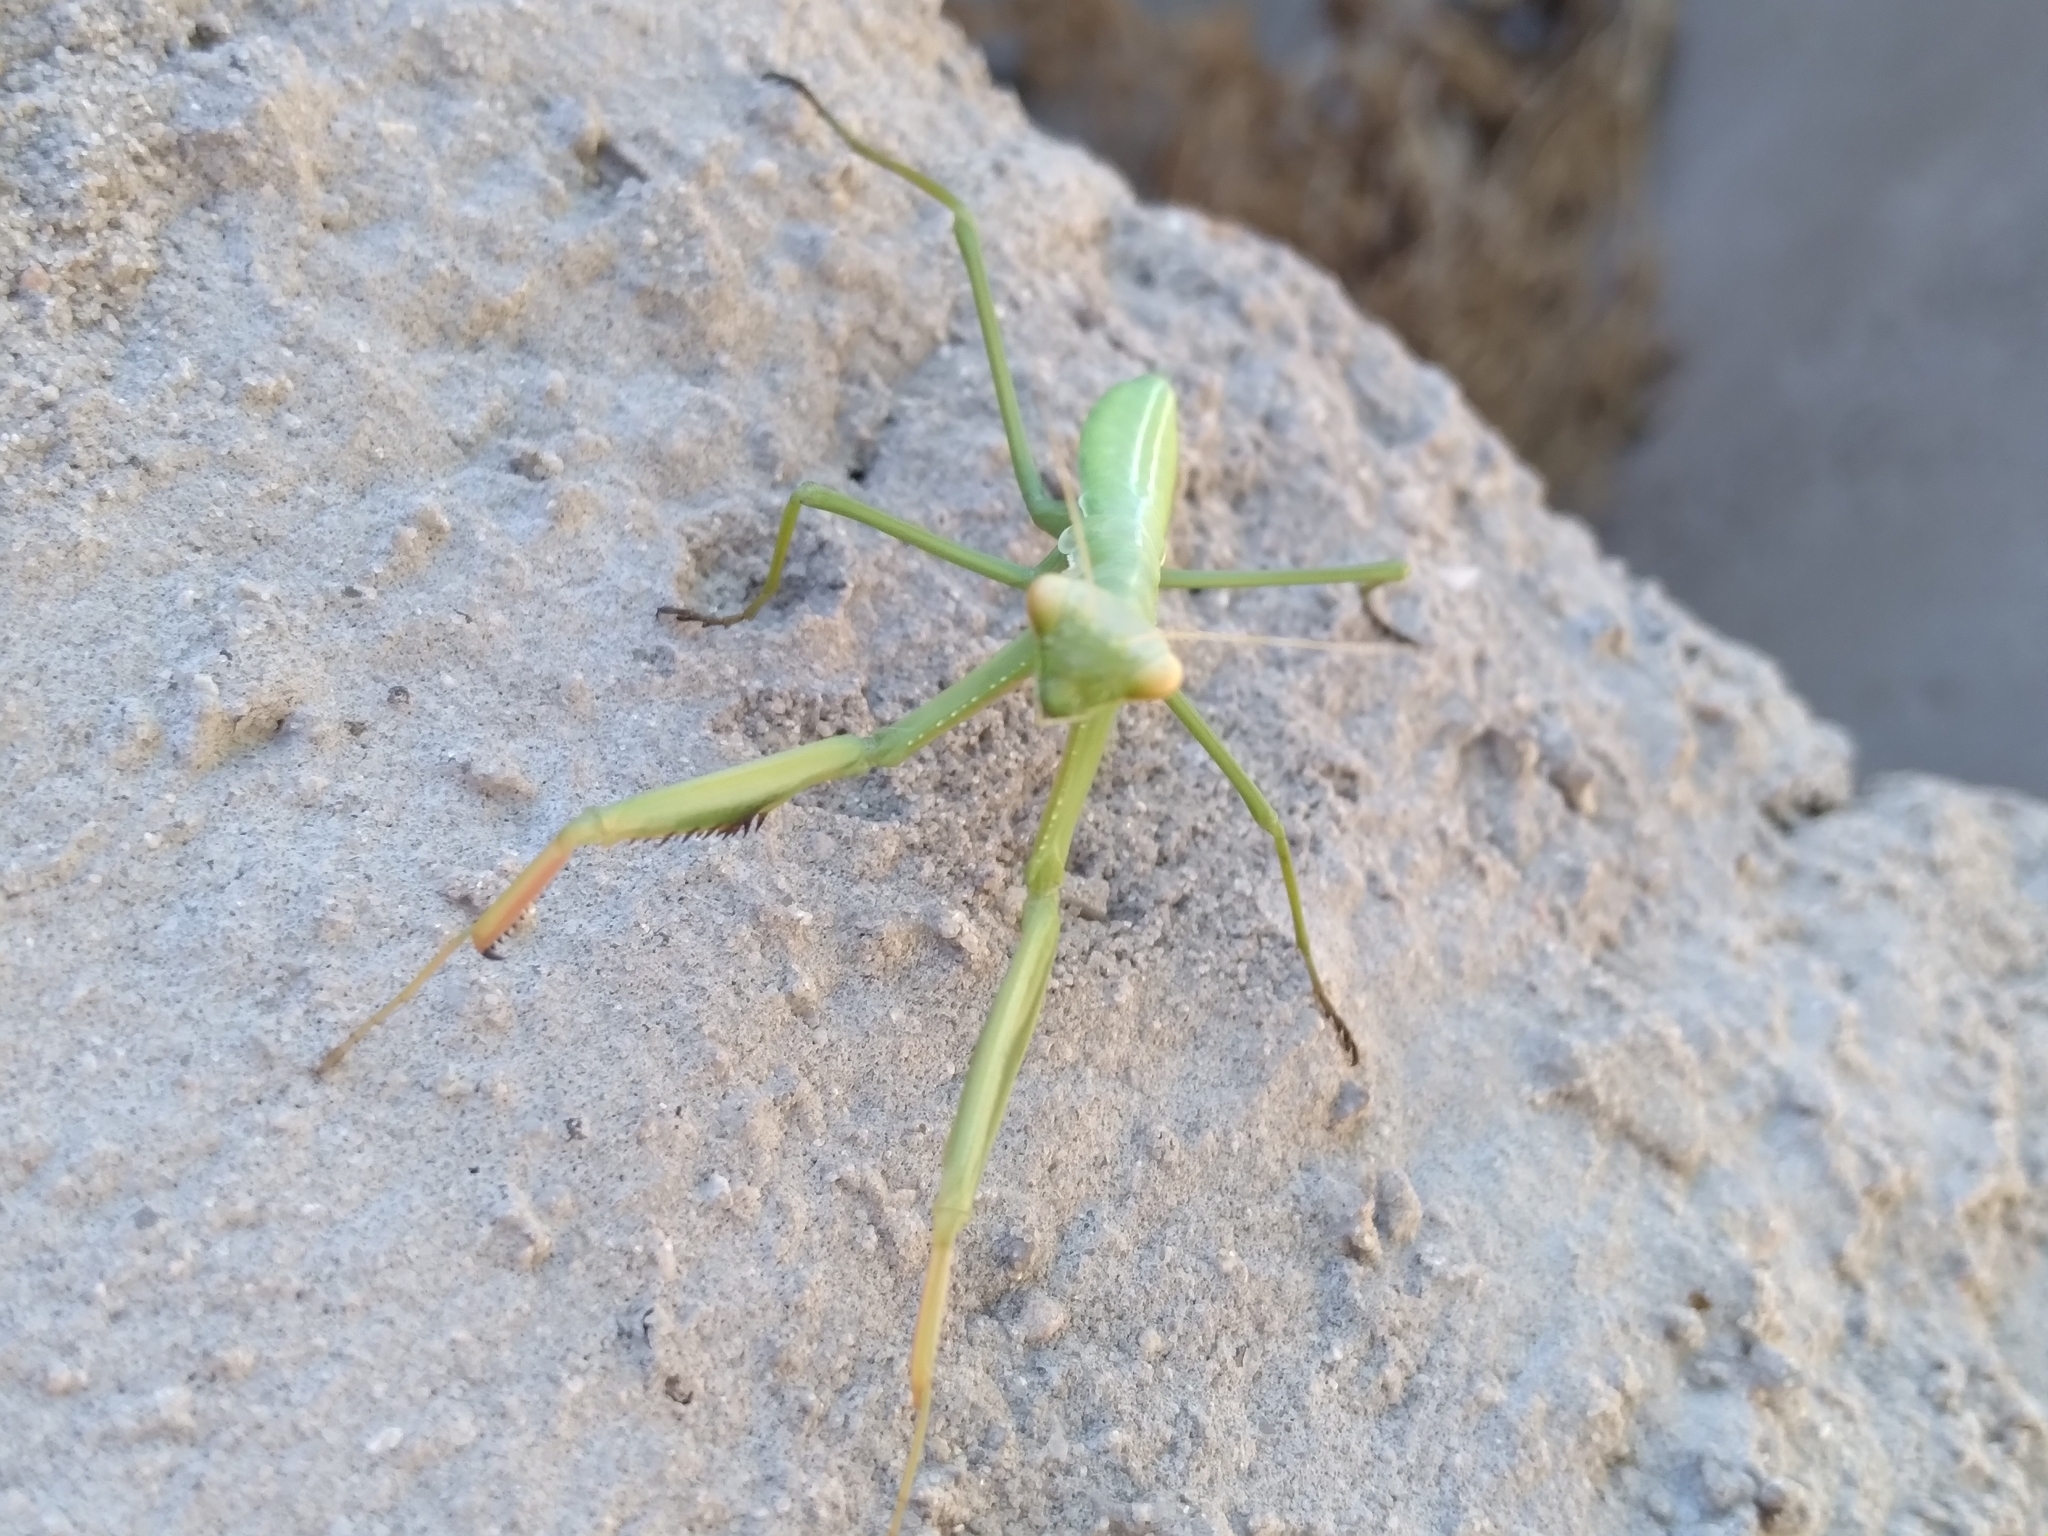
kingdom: Animalia
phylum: Arthropoda
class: Insecta
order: Mantodea
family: Coptopterygidae
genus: Coptopteryx
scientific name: Coptopteryx argentina
